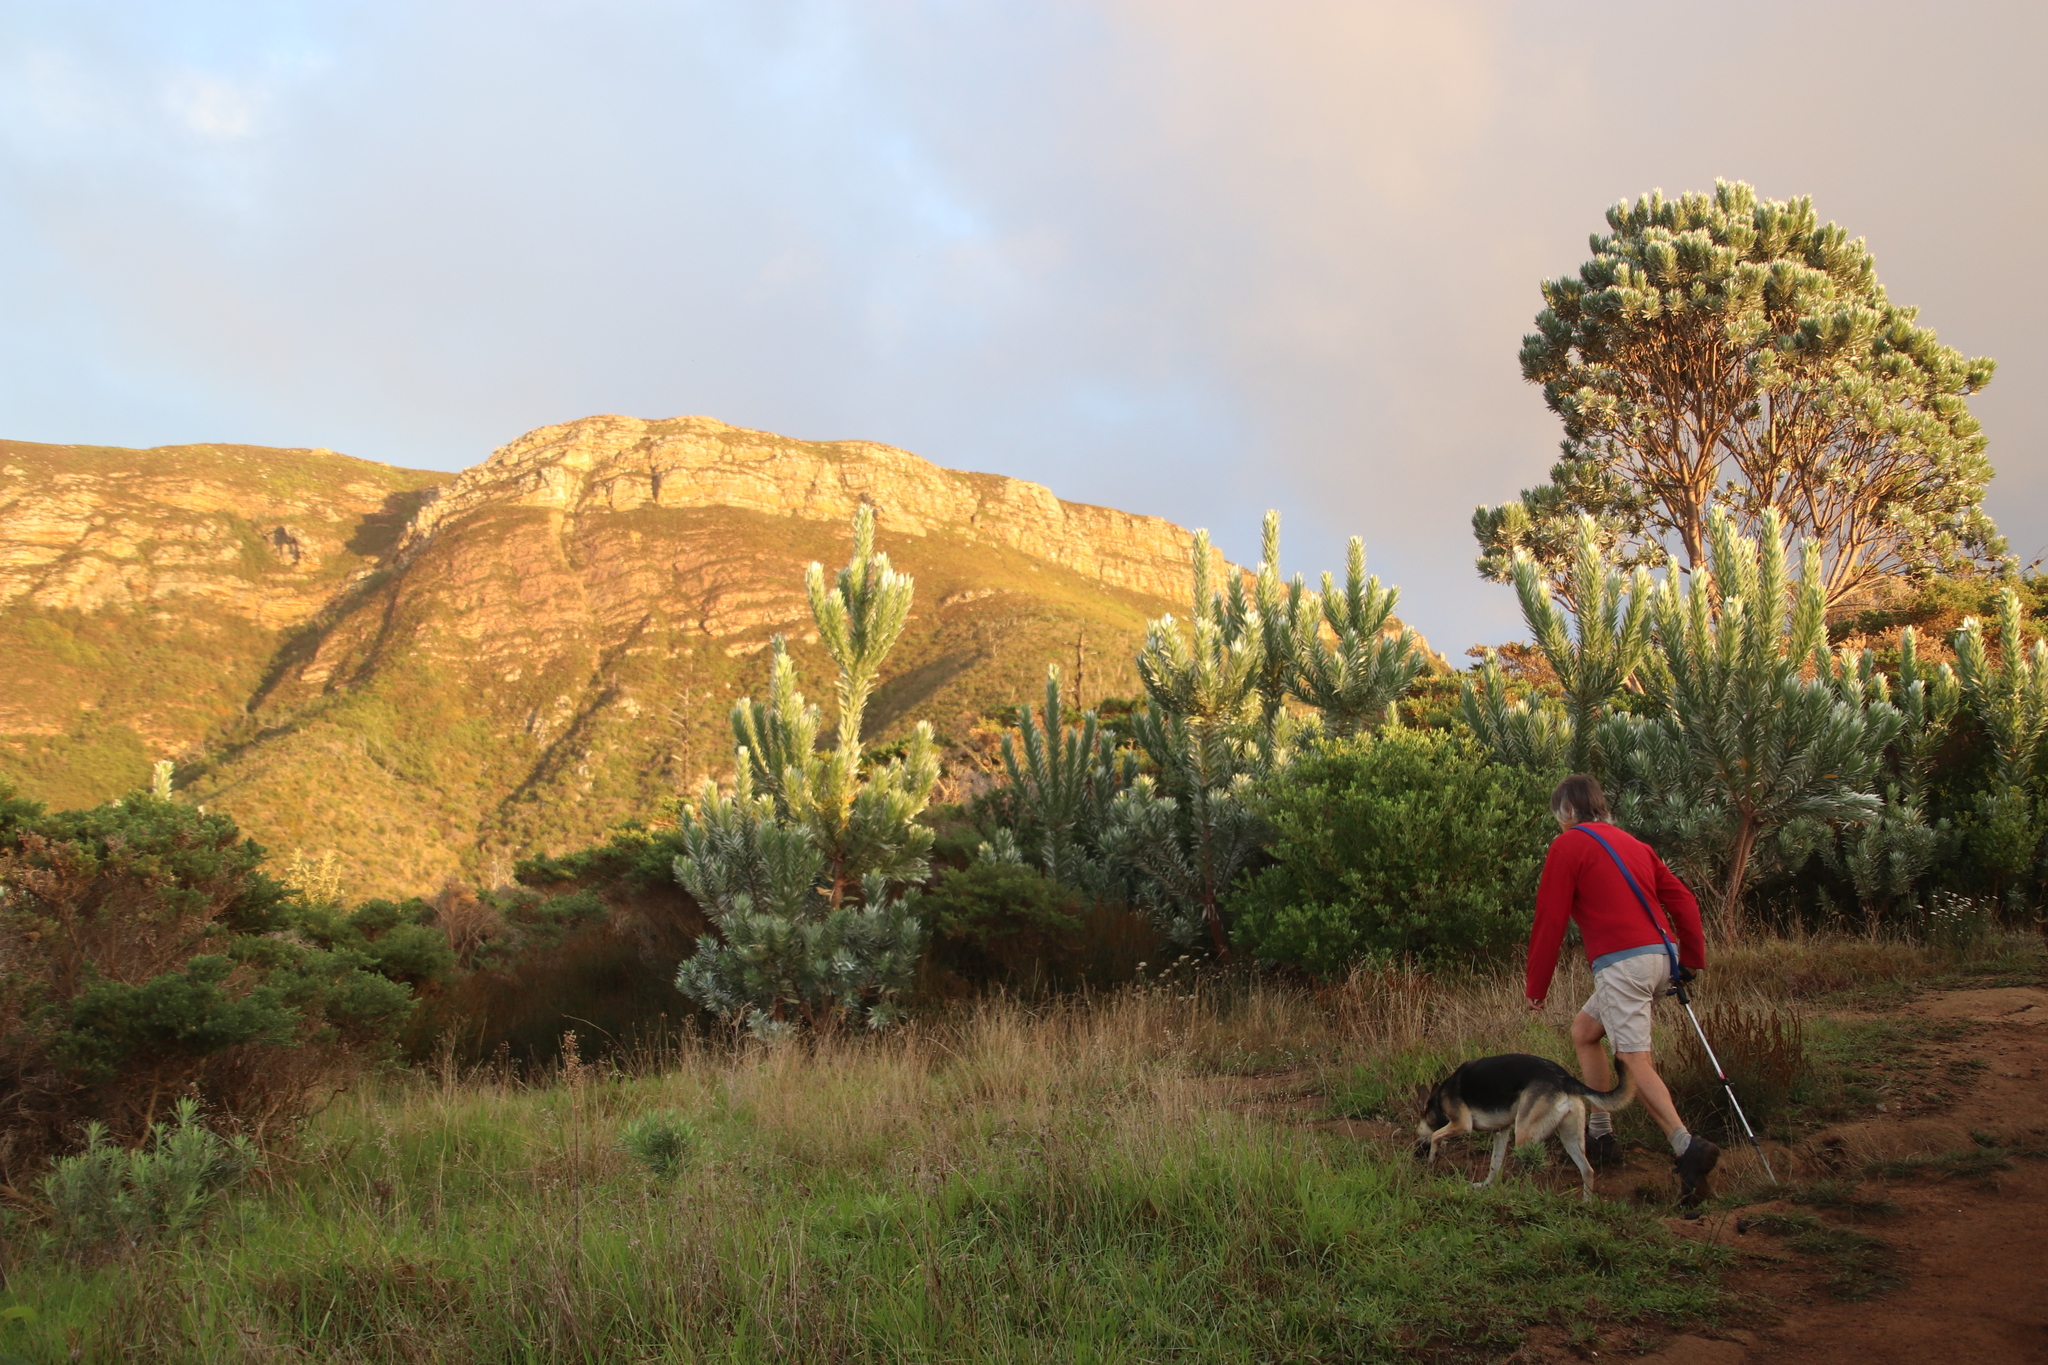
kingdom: Plantae
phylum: Tracheophyta
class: Magnoliopsida
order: Proteales
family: Proteaceae
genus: Leucadendron
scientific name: Leucadendron argenteum
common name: Cape silver tree
